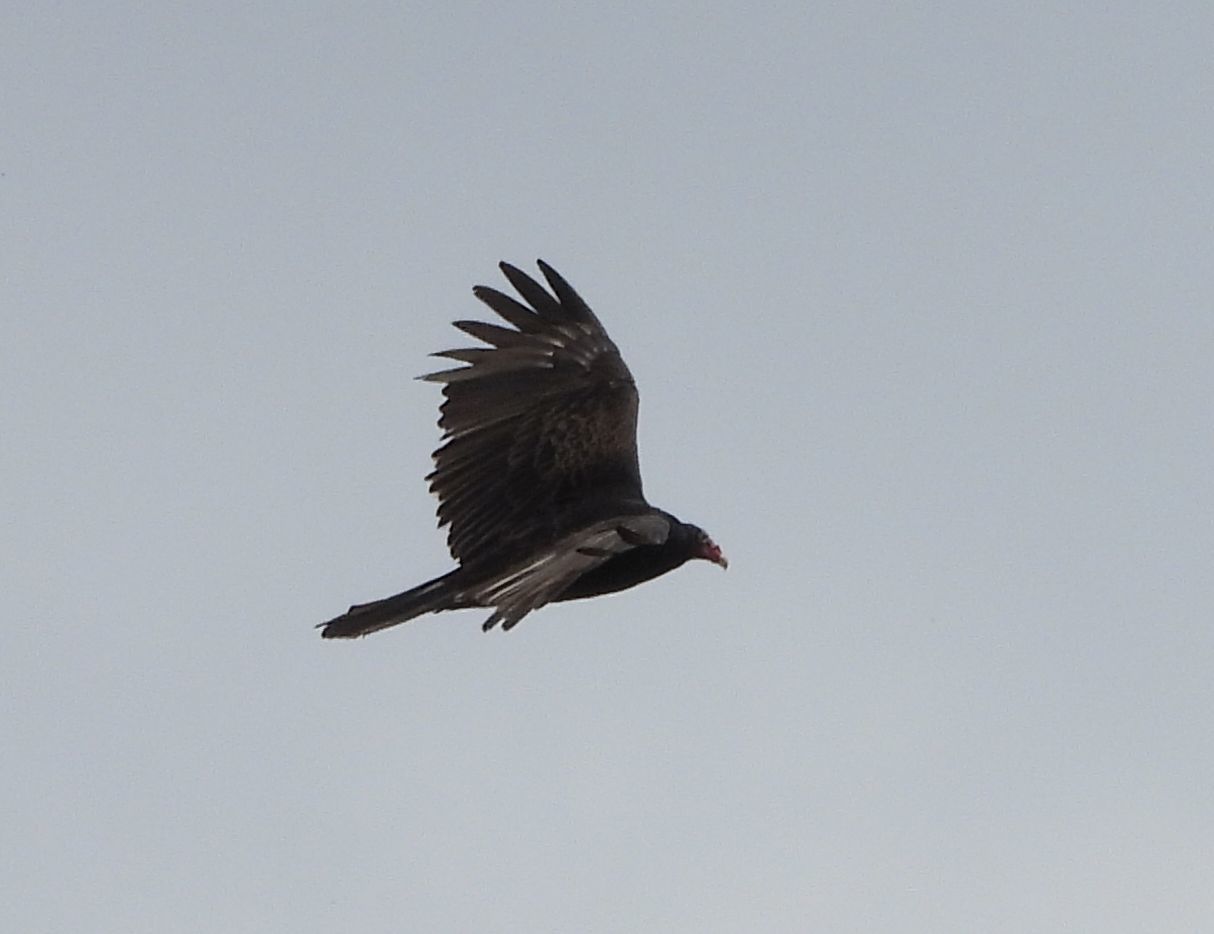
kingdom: Animalia
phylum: Chordata
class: Aves
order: Accipitriformes
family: Cathartidae
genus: Cathartes
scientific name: Cathartes aura
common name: Turkey vulture
